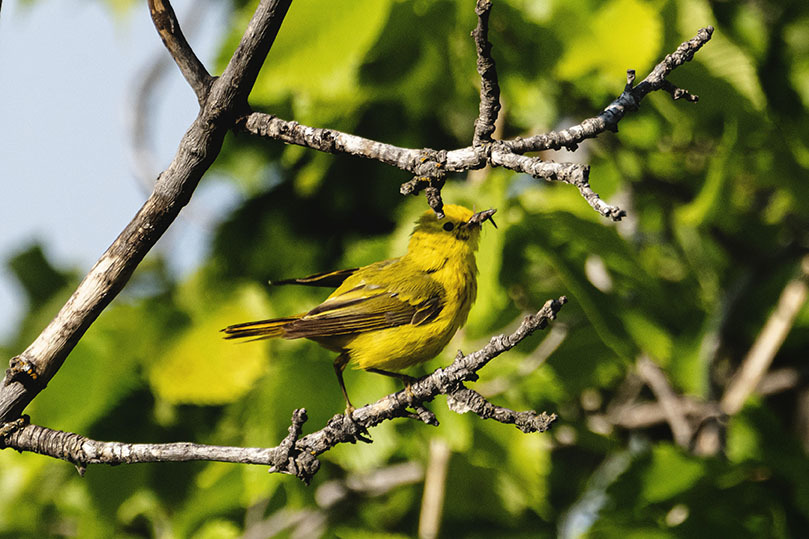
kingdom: Animalia
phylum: Chordata
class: Aves
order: Passeriformes
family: Parulidae
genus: Setophaga
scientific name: Setophaga petechia
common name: Yellow warbler
